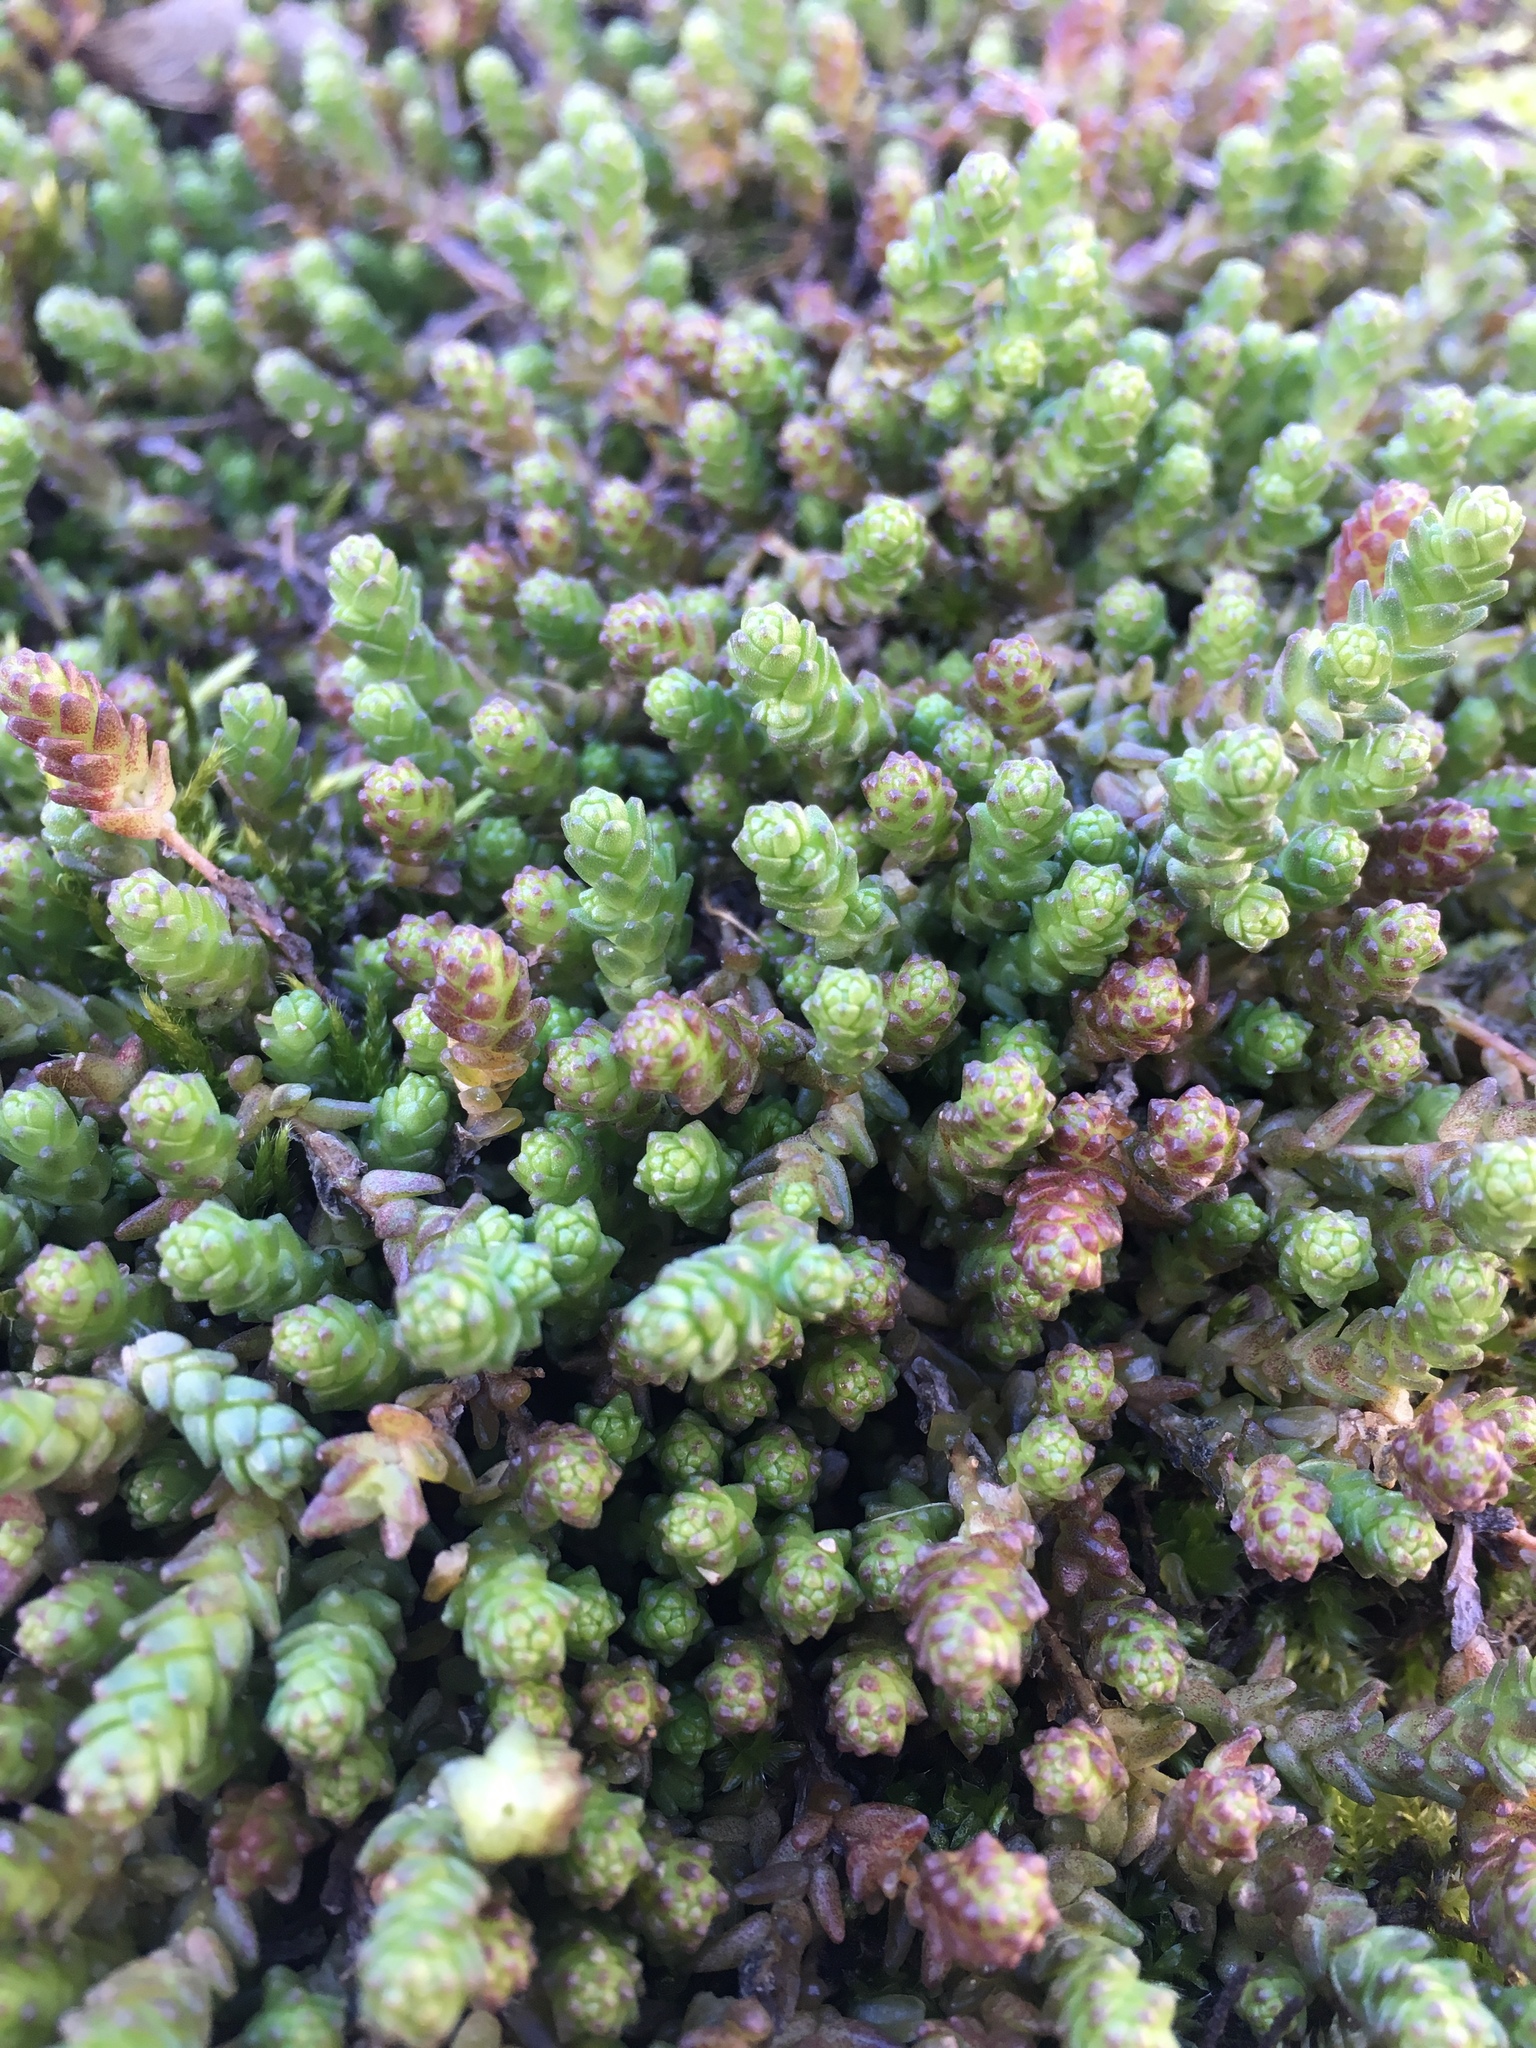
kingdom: Plantae
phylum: Tracheophyta
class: Magnoliopsida
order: Saxifragales
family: Crassulaceae
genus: Sedum
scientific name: Sedum acre
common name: Biting stonecrop
